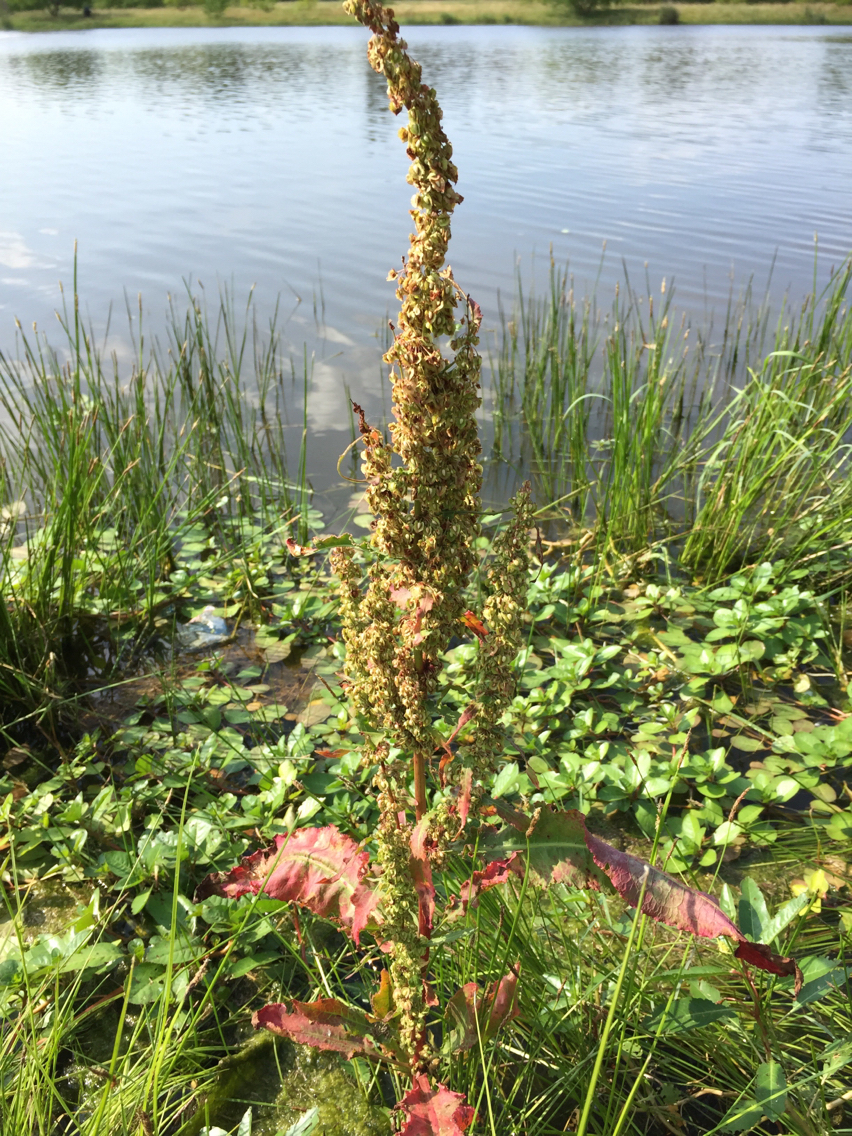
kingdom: Plantae
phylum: Tracheophyta
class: Magnoliopsida
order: Caryophyllales
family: Polygonaceae
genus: Rumex
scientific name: Rumex crispus
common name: Curled dock
